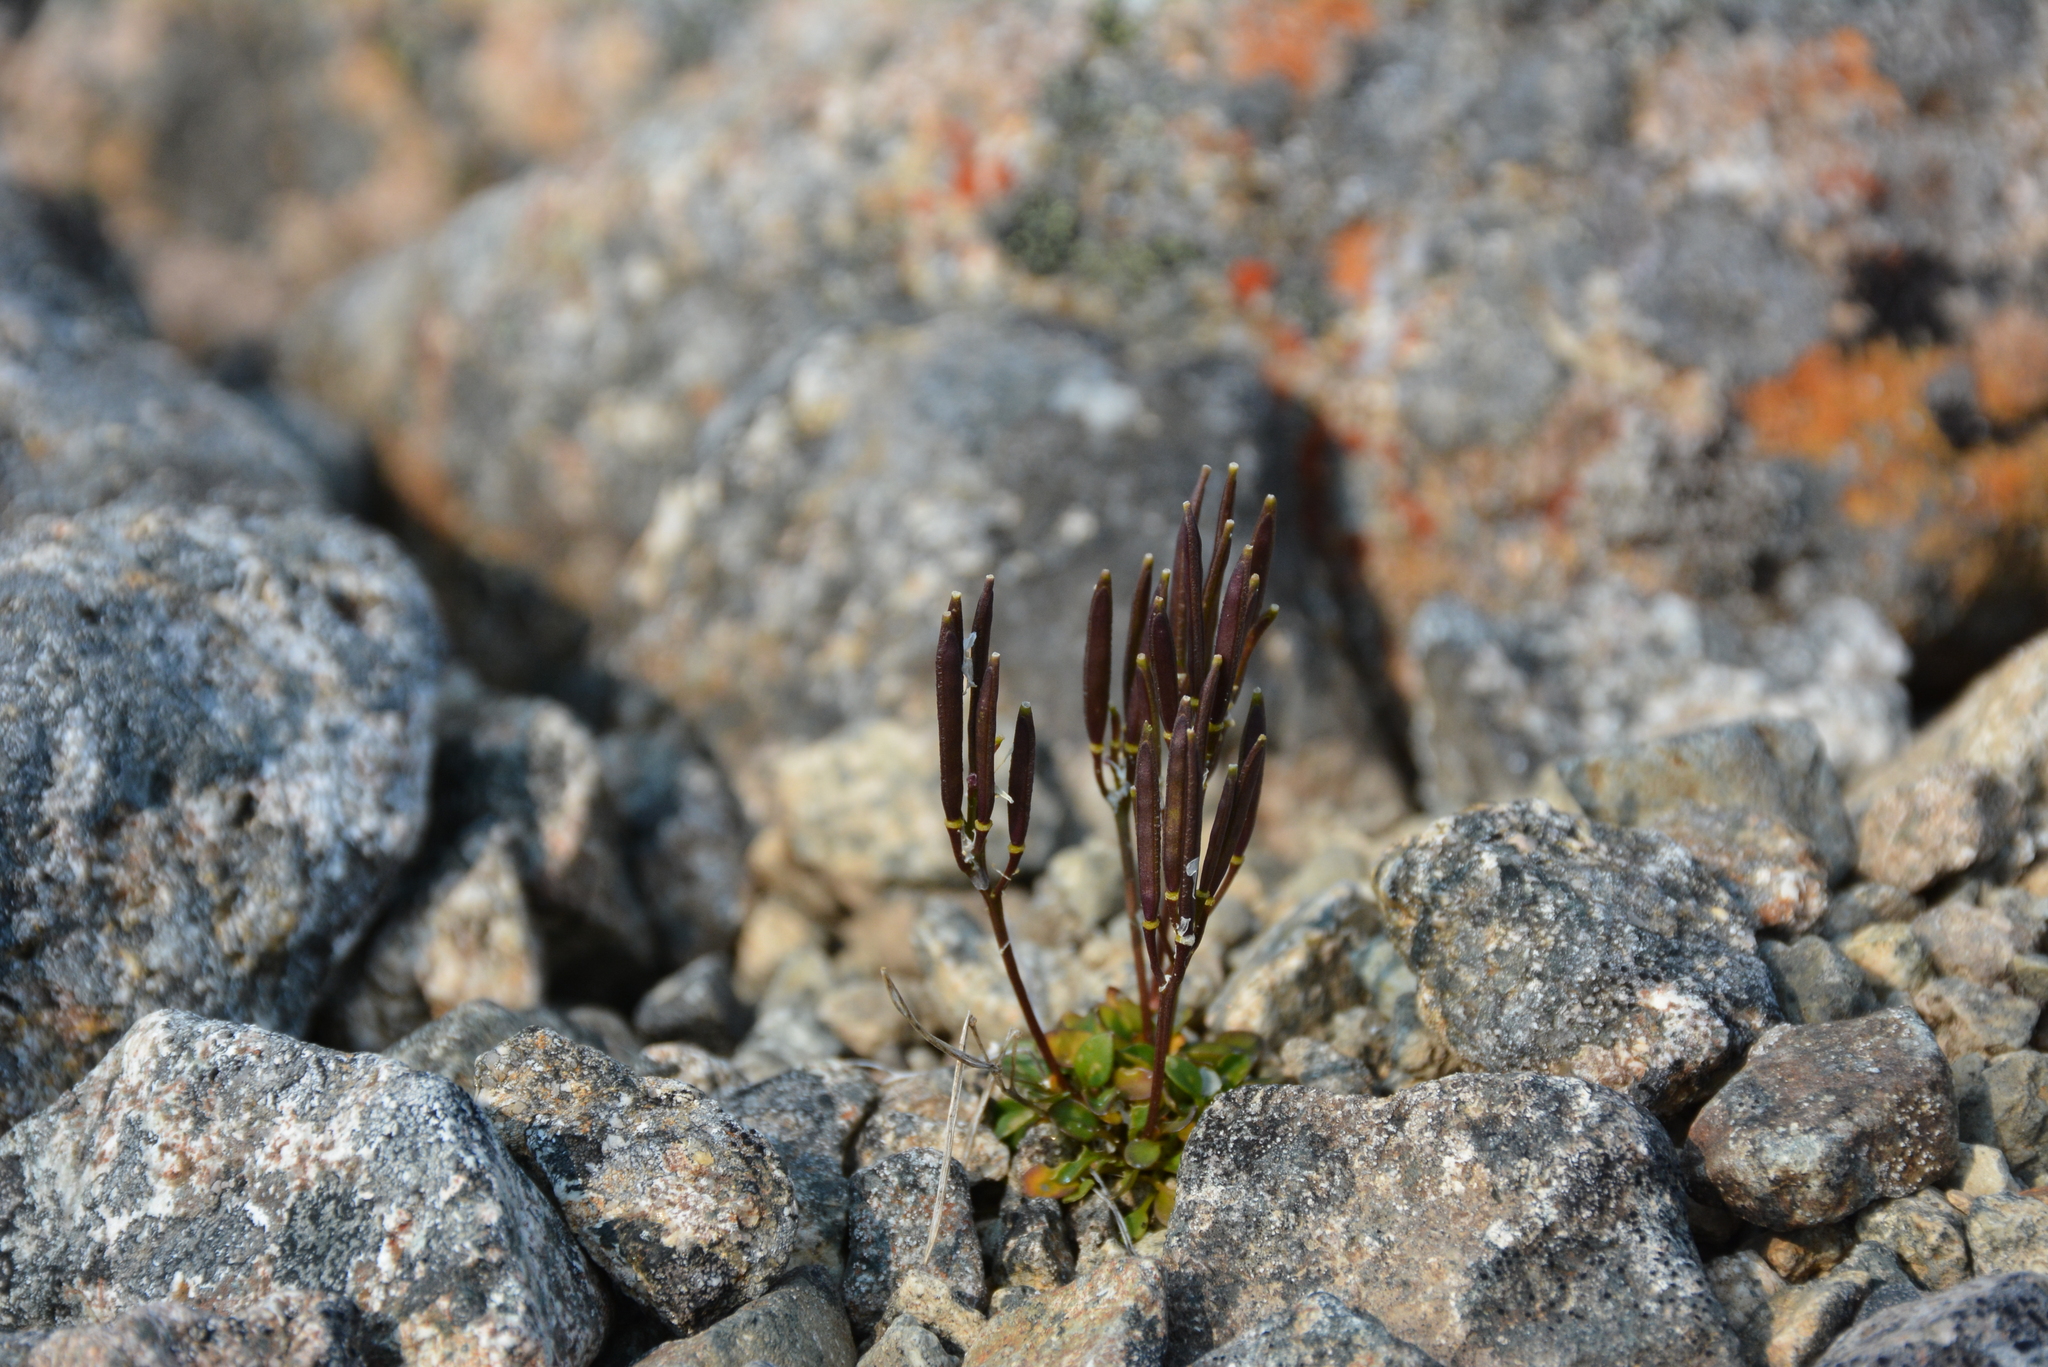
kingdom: Plantae
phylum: Tracheophyta
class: Magnoliopsida
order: Brassicales
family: Brassicaceae
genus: Cardamine
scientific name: Cardamine bellidifolia
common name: Alpine bittercress
